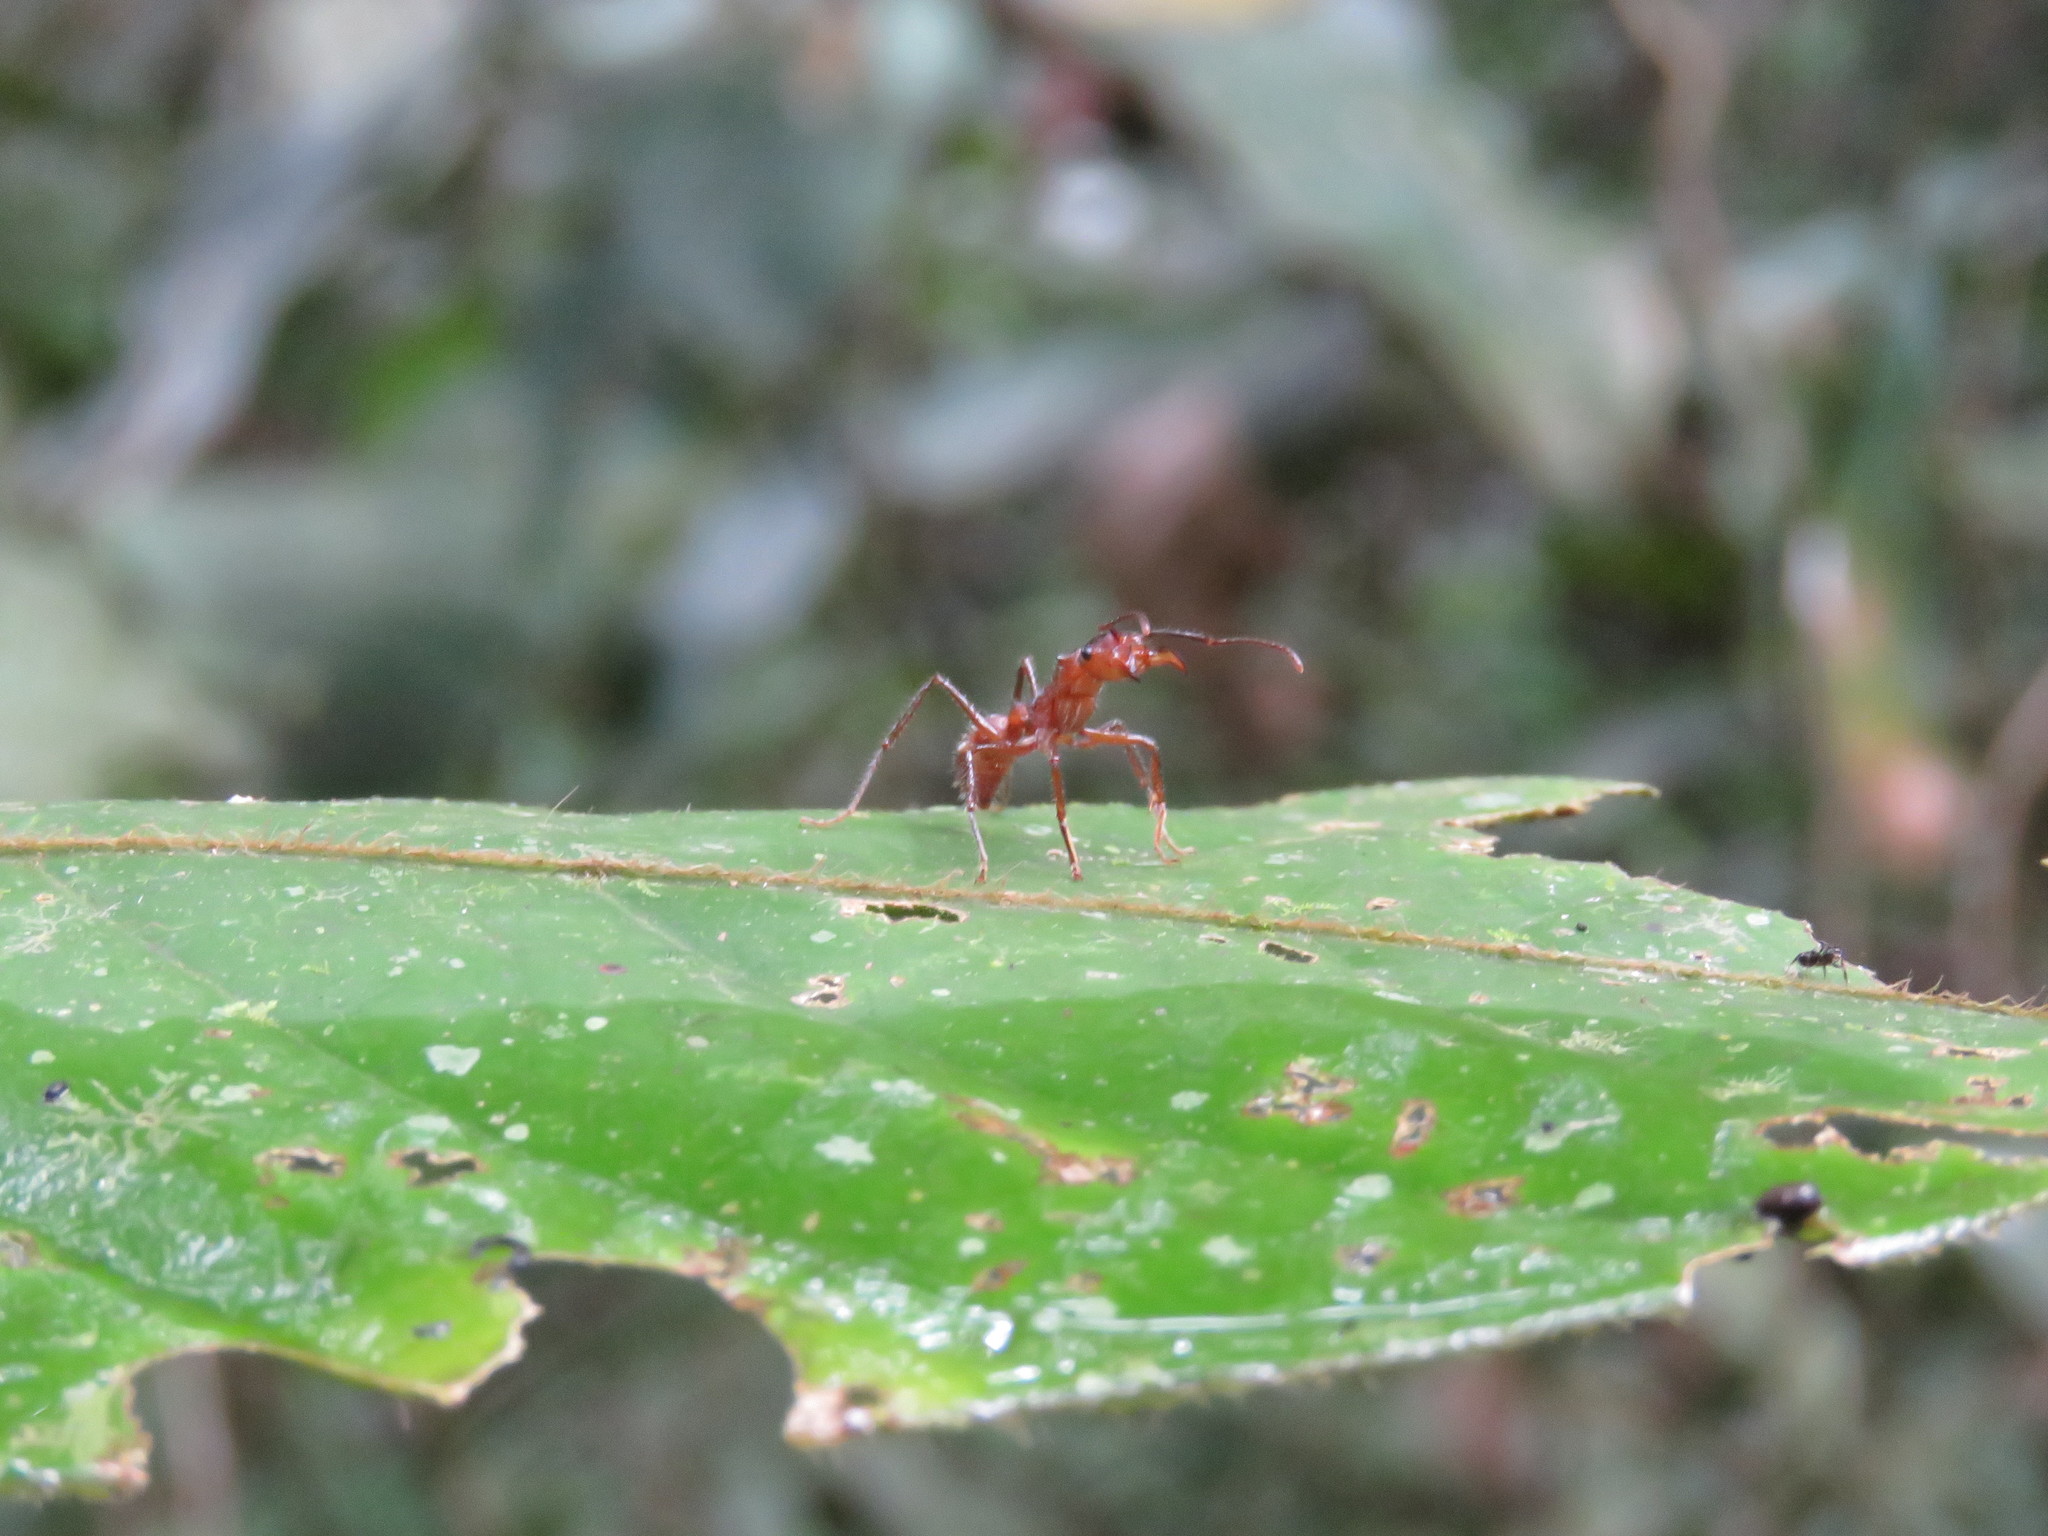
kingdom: Animalia
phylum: Arthropoda
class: Insecta
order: Hymenoptera
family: Formicidae
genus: Ectatomma
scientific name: Ectatomma tuberculatum
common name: Ant
